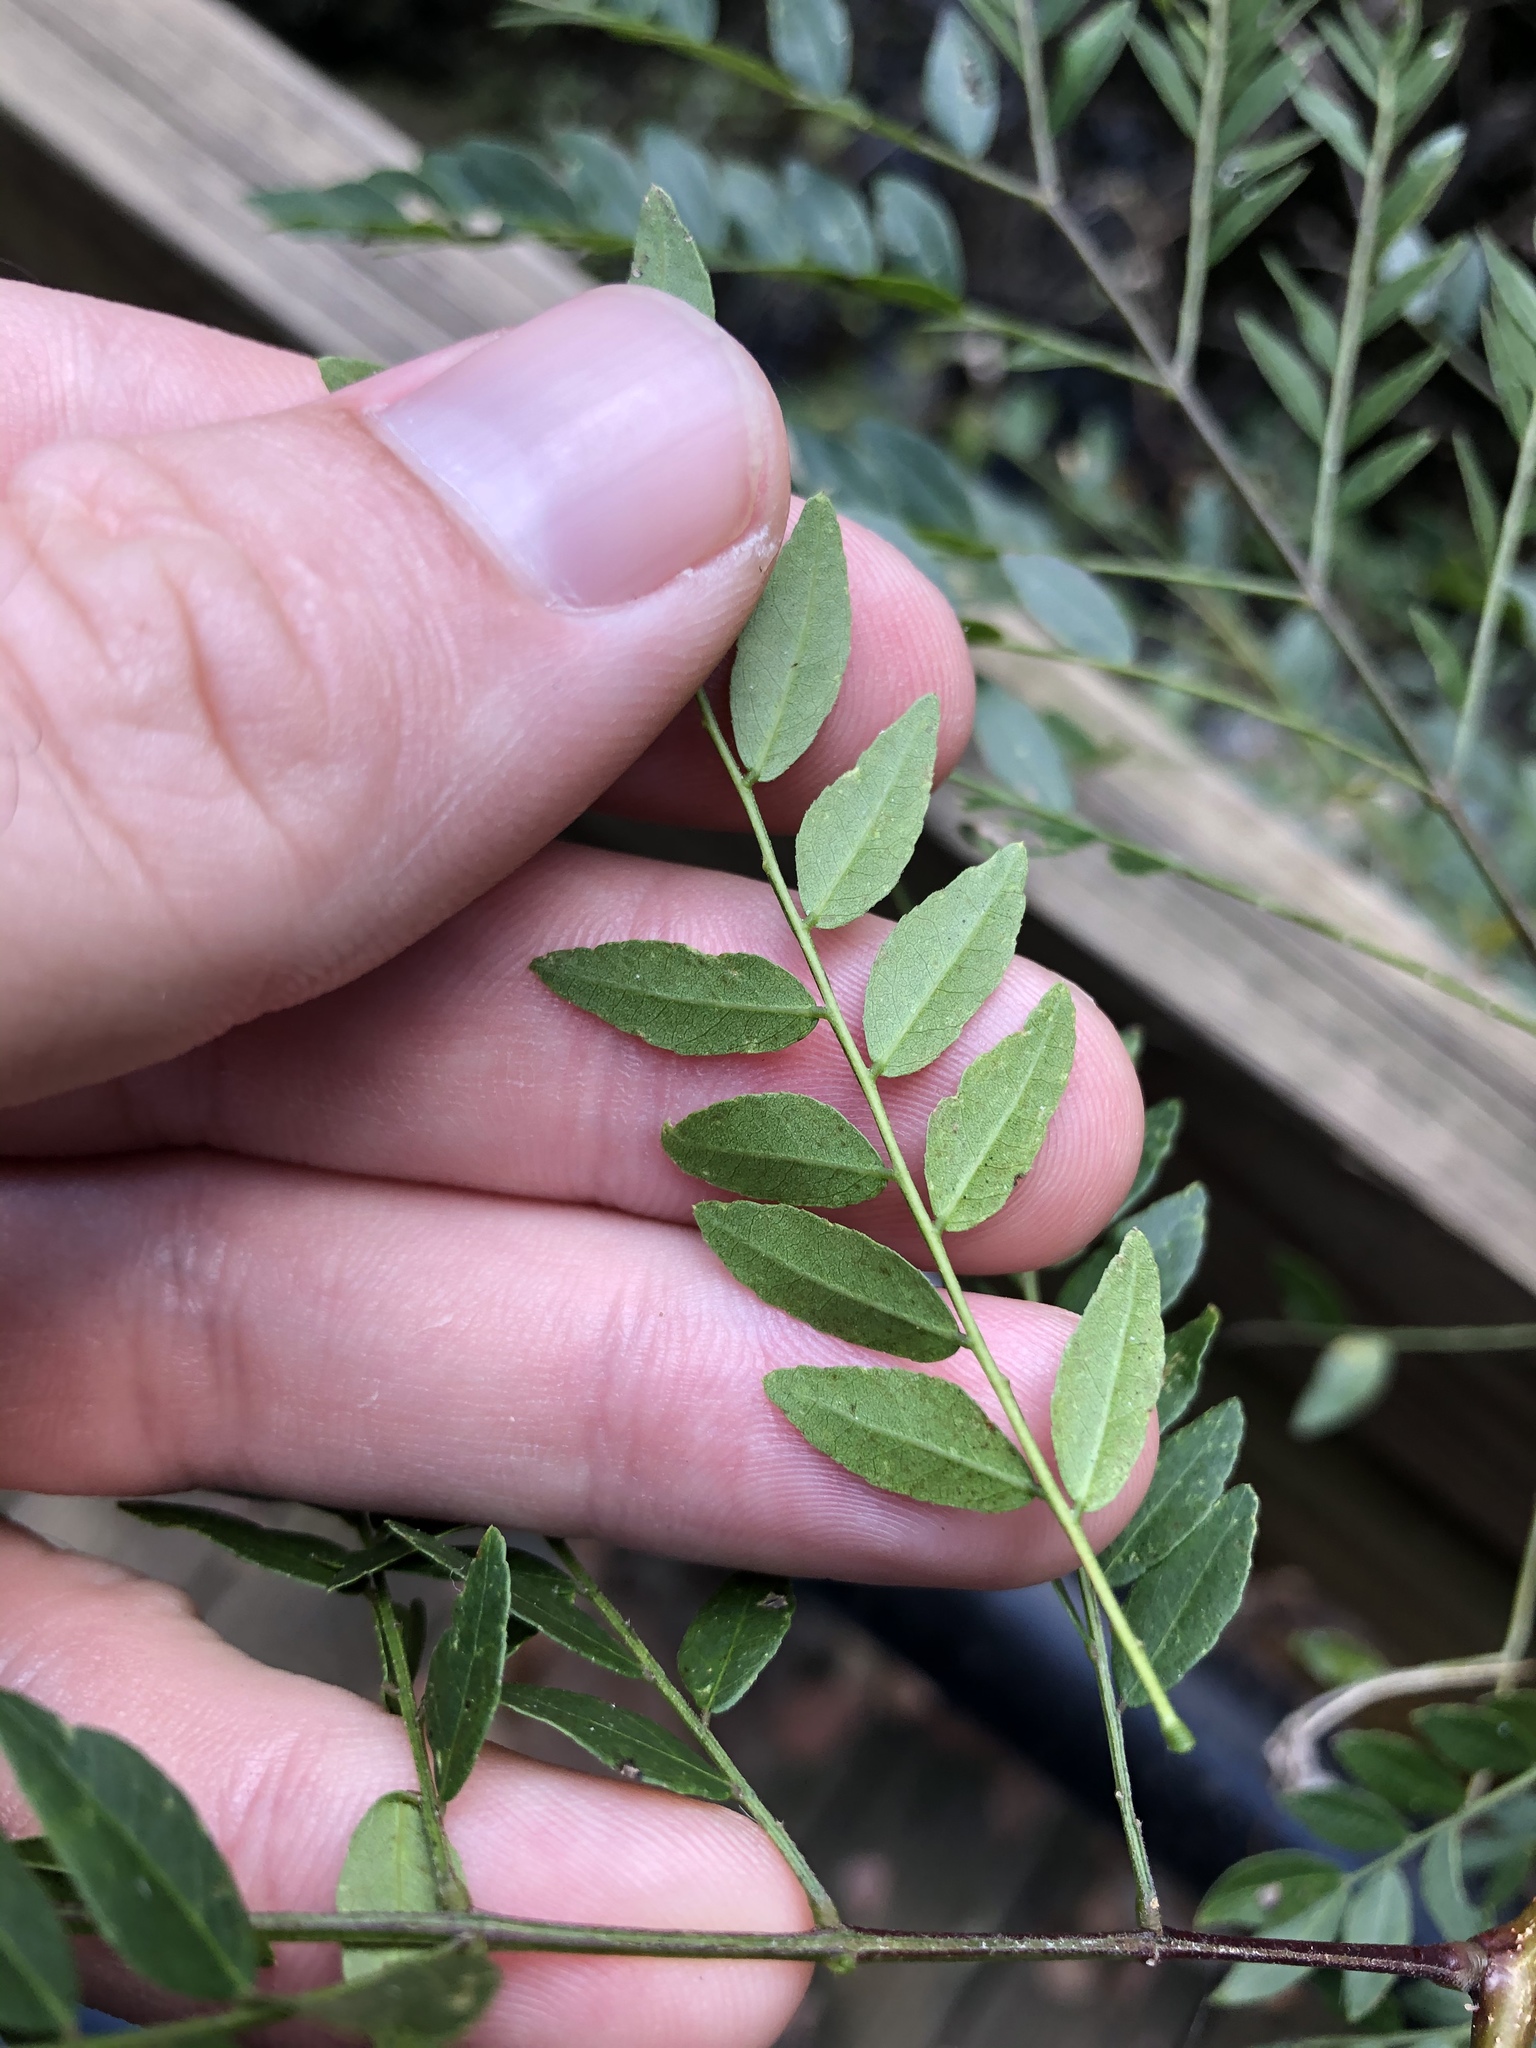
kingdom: Plantae
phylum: Tracheophyta
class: Magnoliopsida
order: Fabales
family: Fabaceae
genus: Gleditsia
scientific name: Gleditsia aquatica
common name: Swamp-locust
